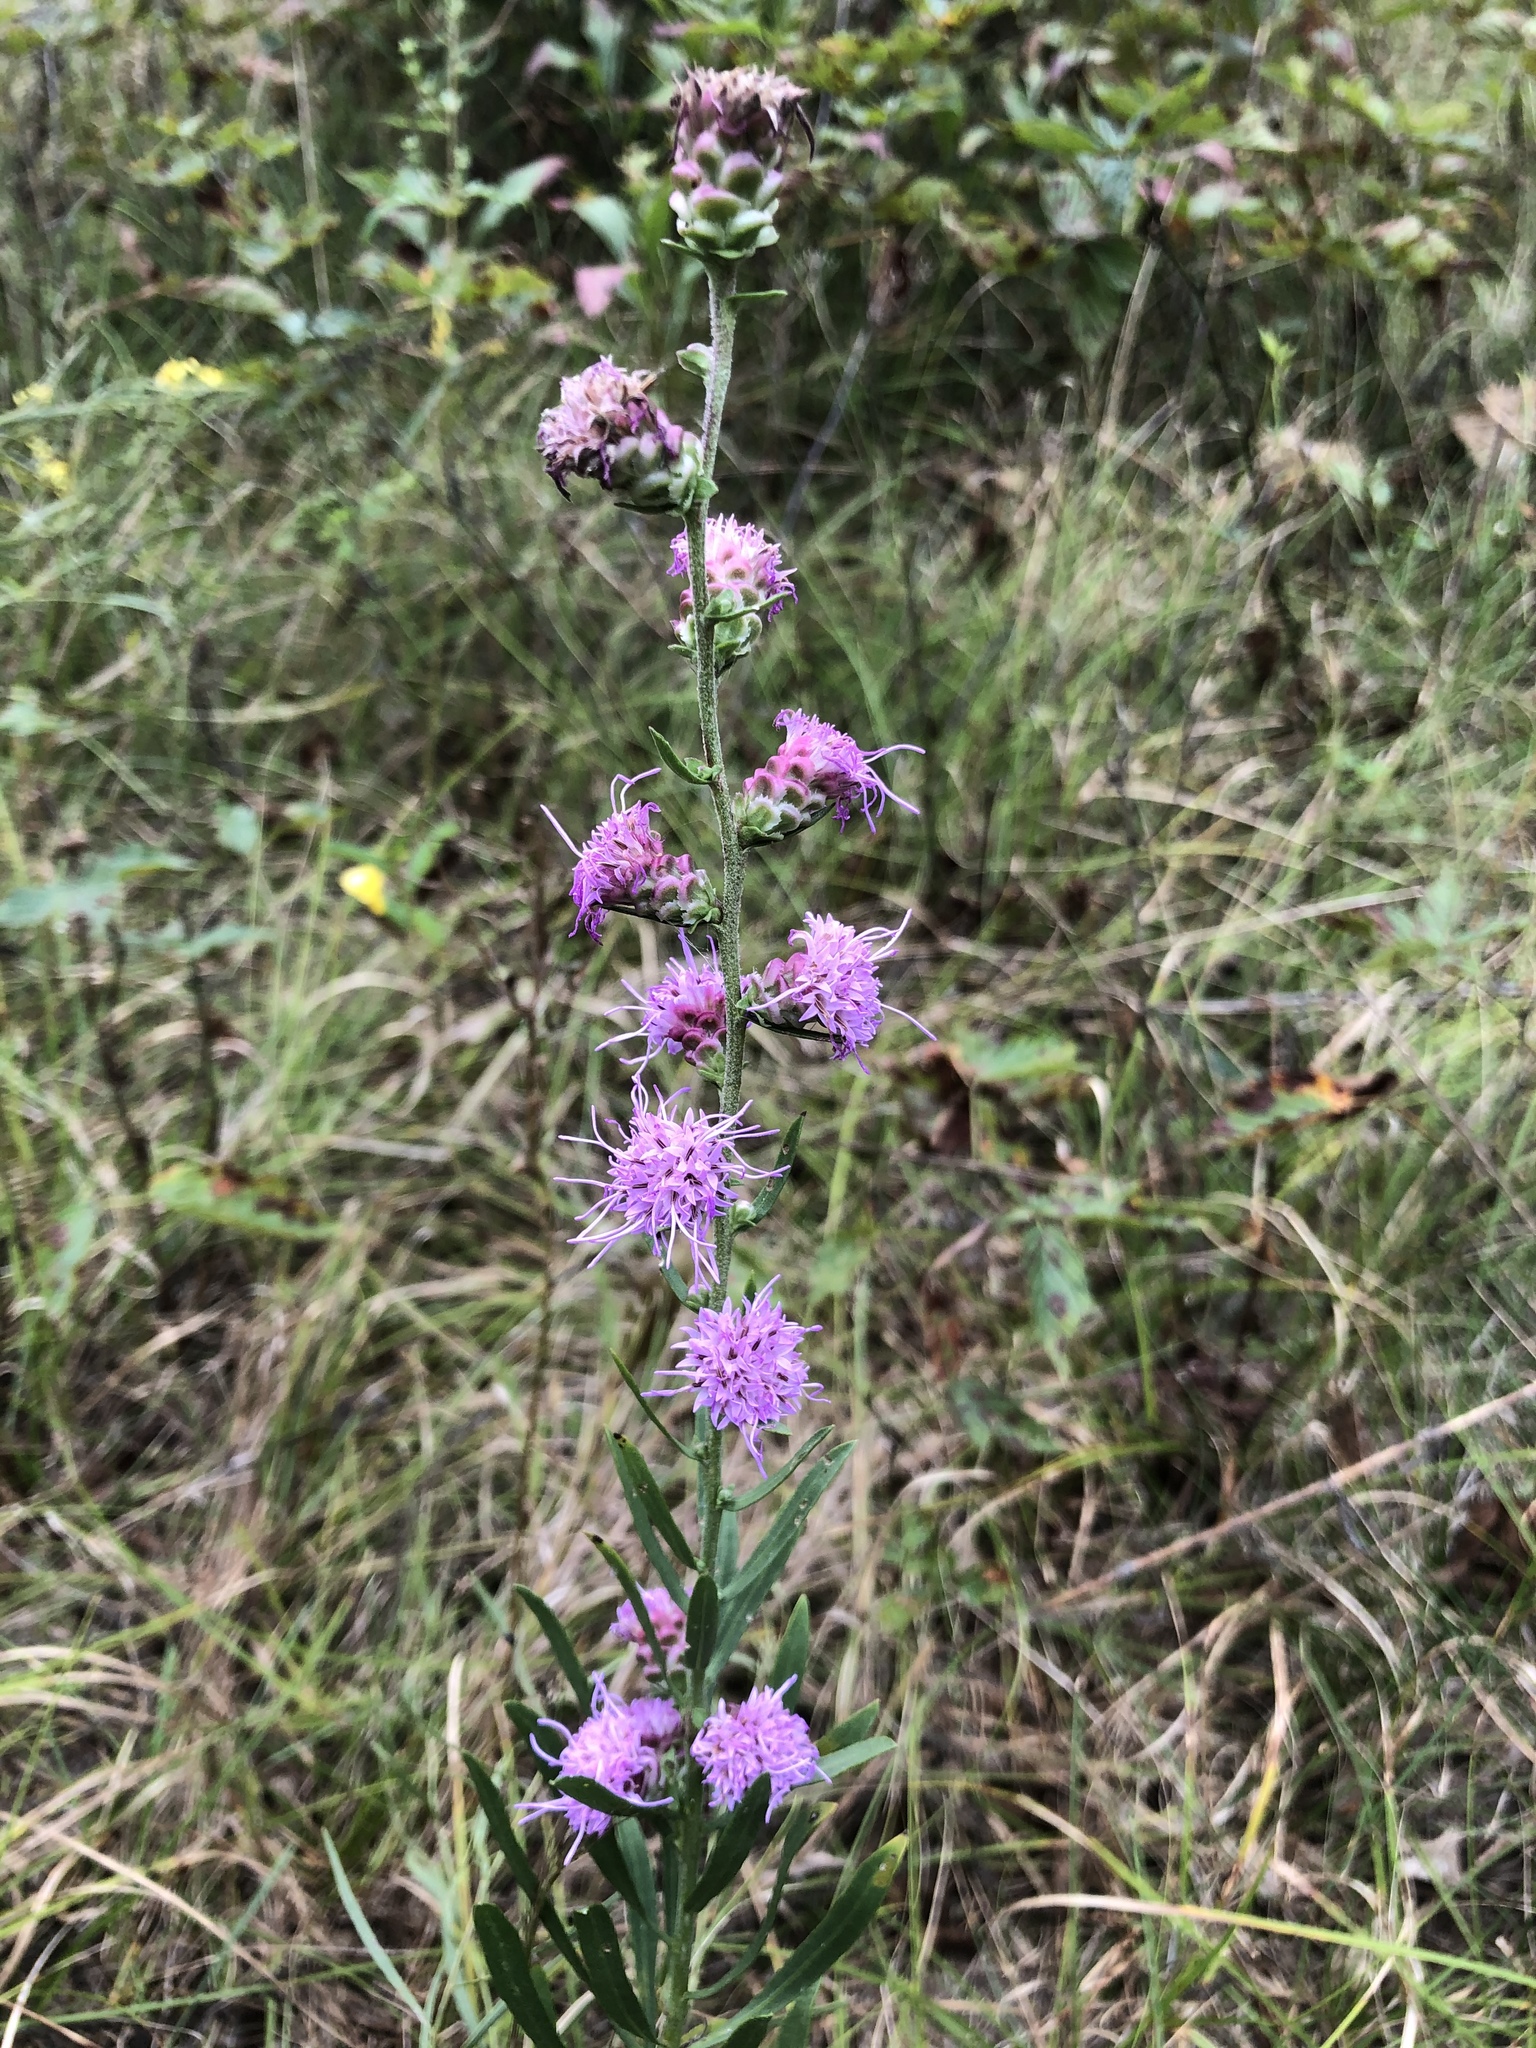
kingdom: Plantae
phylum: Tracheophyta
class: Magnoliopsida
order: Asterales
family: Asteraceae
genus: Liatris
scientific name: Liatris aspera
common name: Lacerate blazing-star
